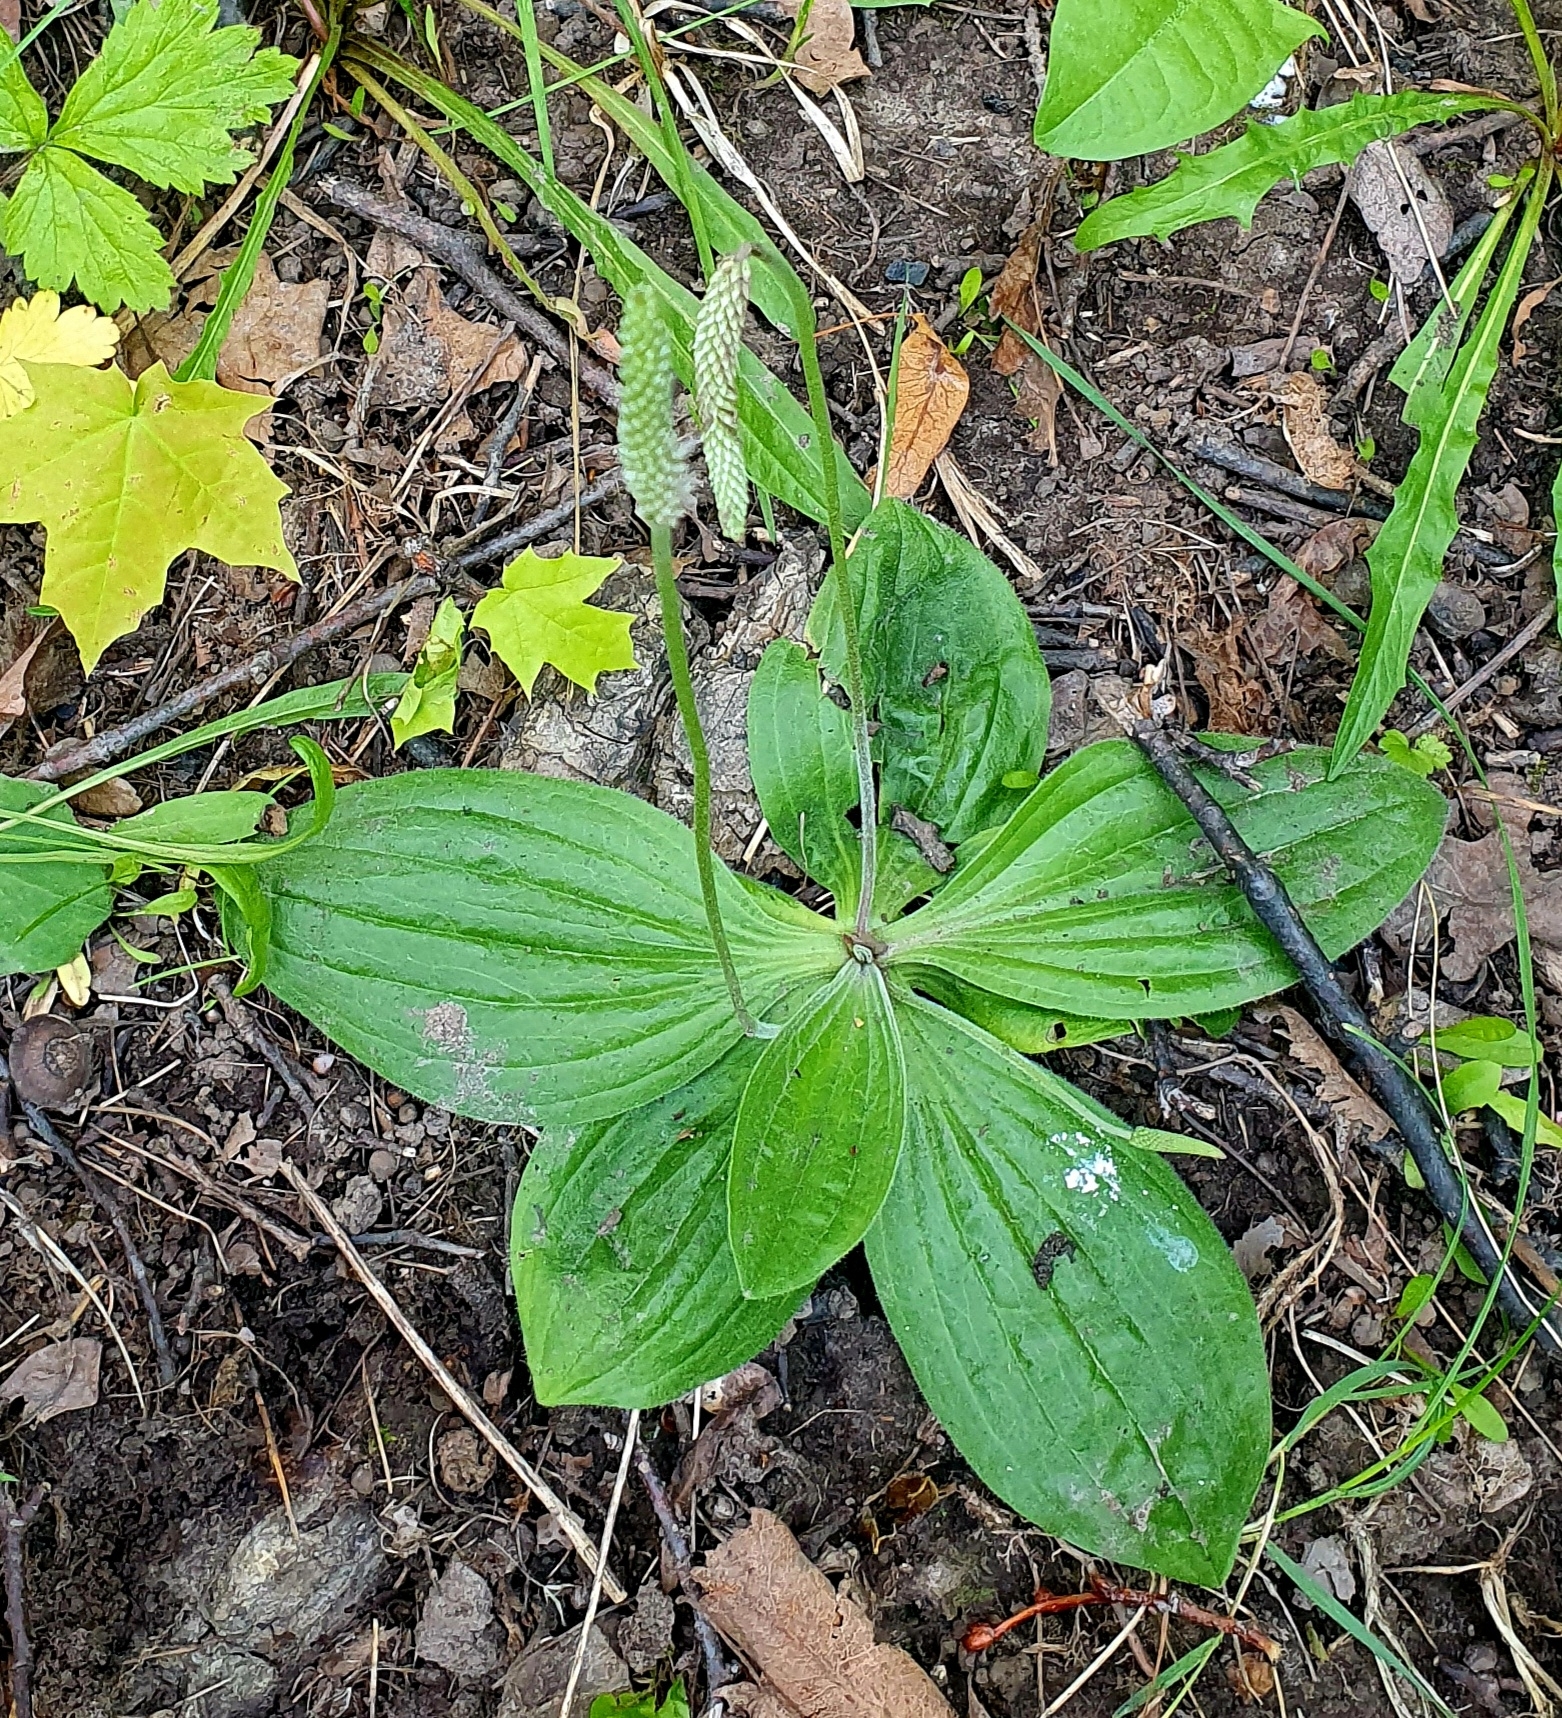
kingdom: Plantae
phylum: Tracheophyta
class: Magnoliopsida
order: Lamiales
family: Plantaginaceae
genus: Plantago
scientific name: Plantago media
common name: Hoary plantain
